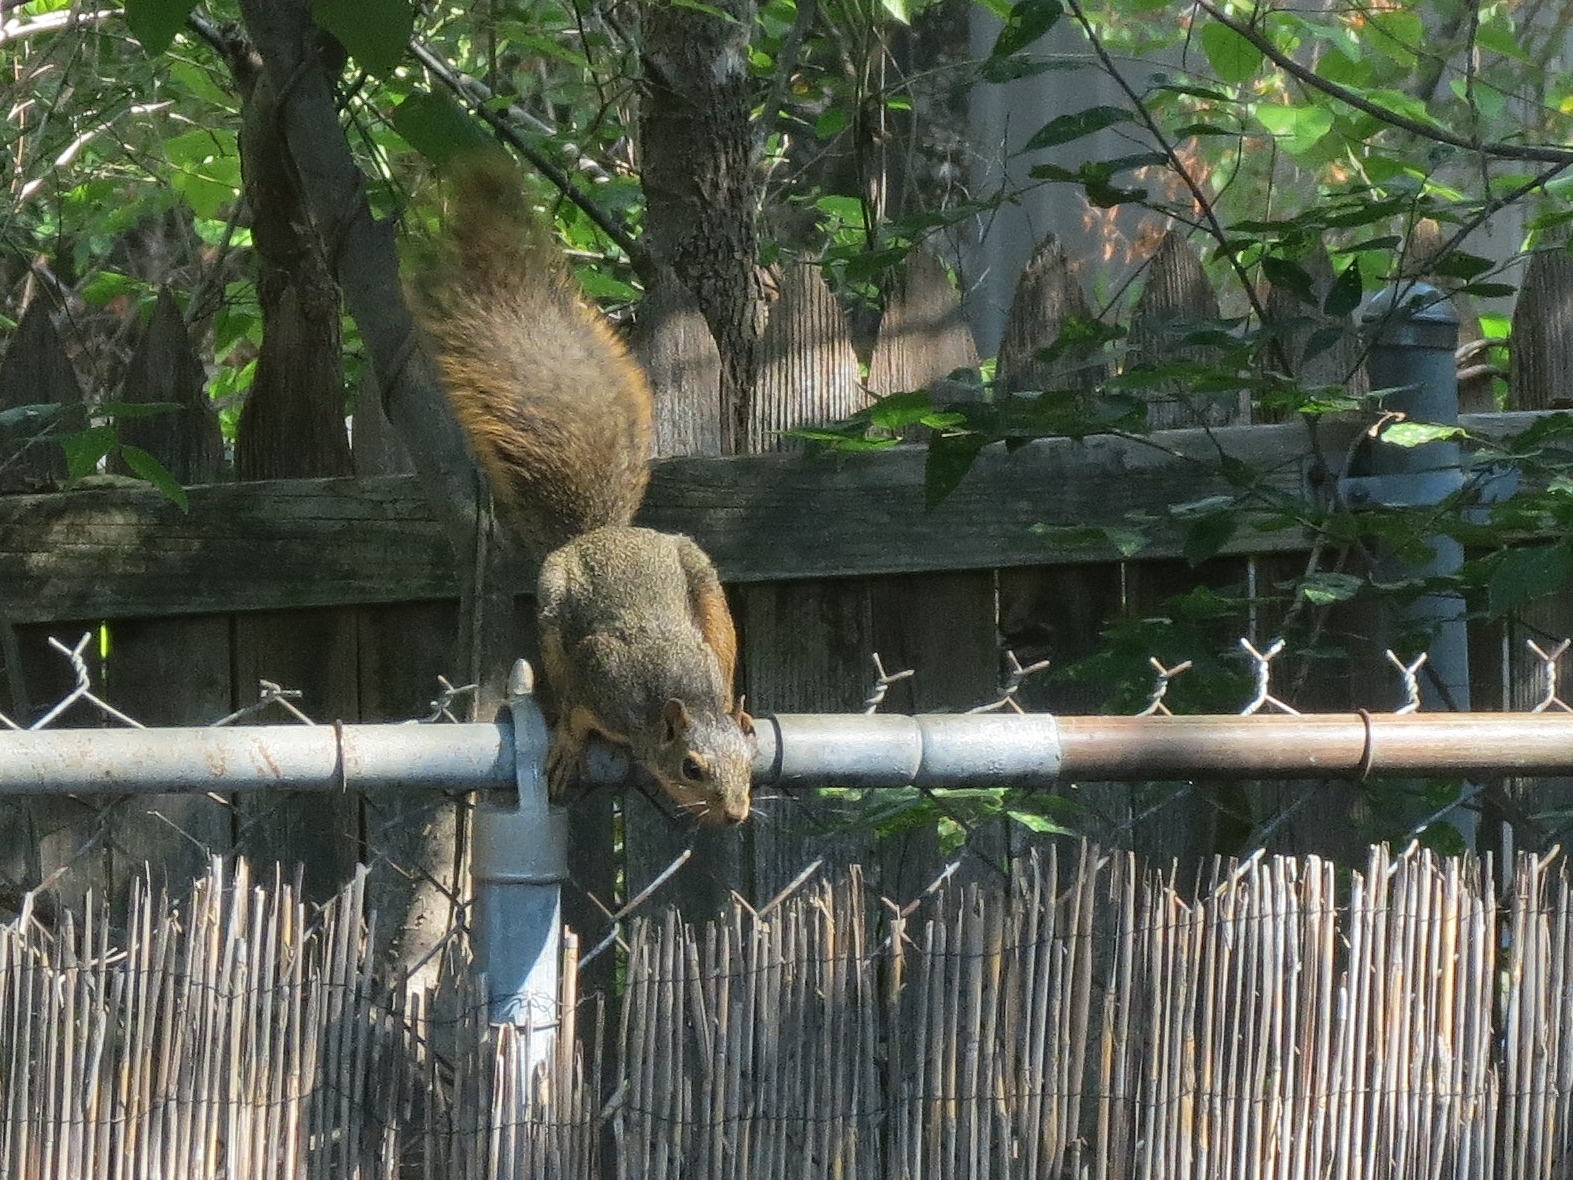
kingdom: Animalia
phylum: Chordata
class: Mammalia
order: Rodentia
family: Sciuridae
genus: Sciurus
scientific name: Sciurus niger
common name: Fox squirrel
